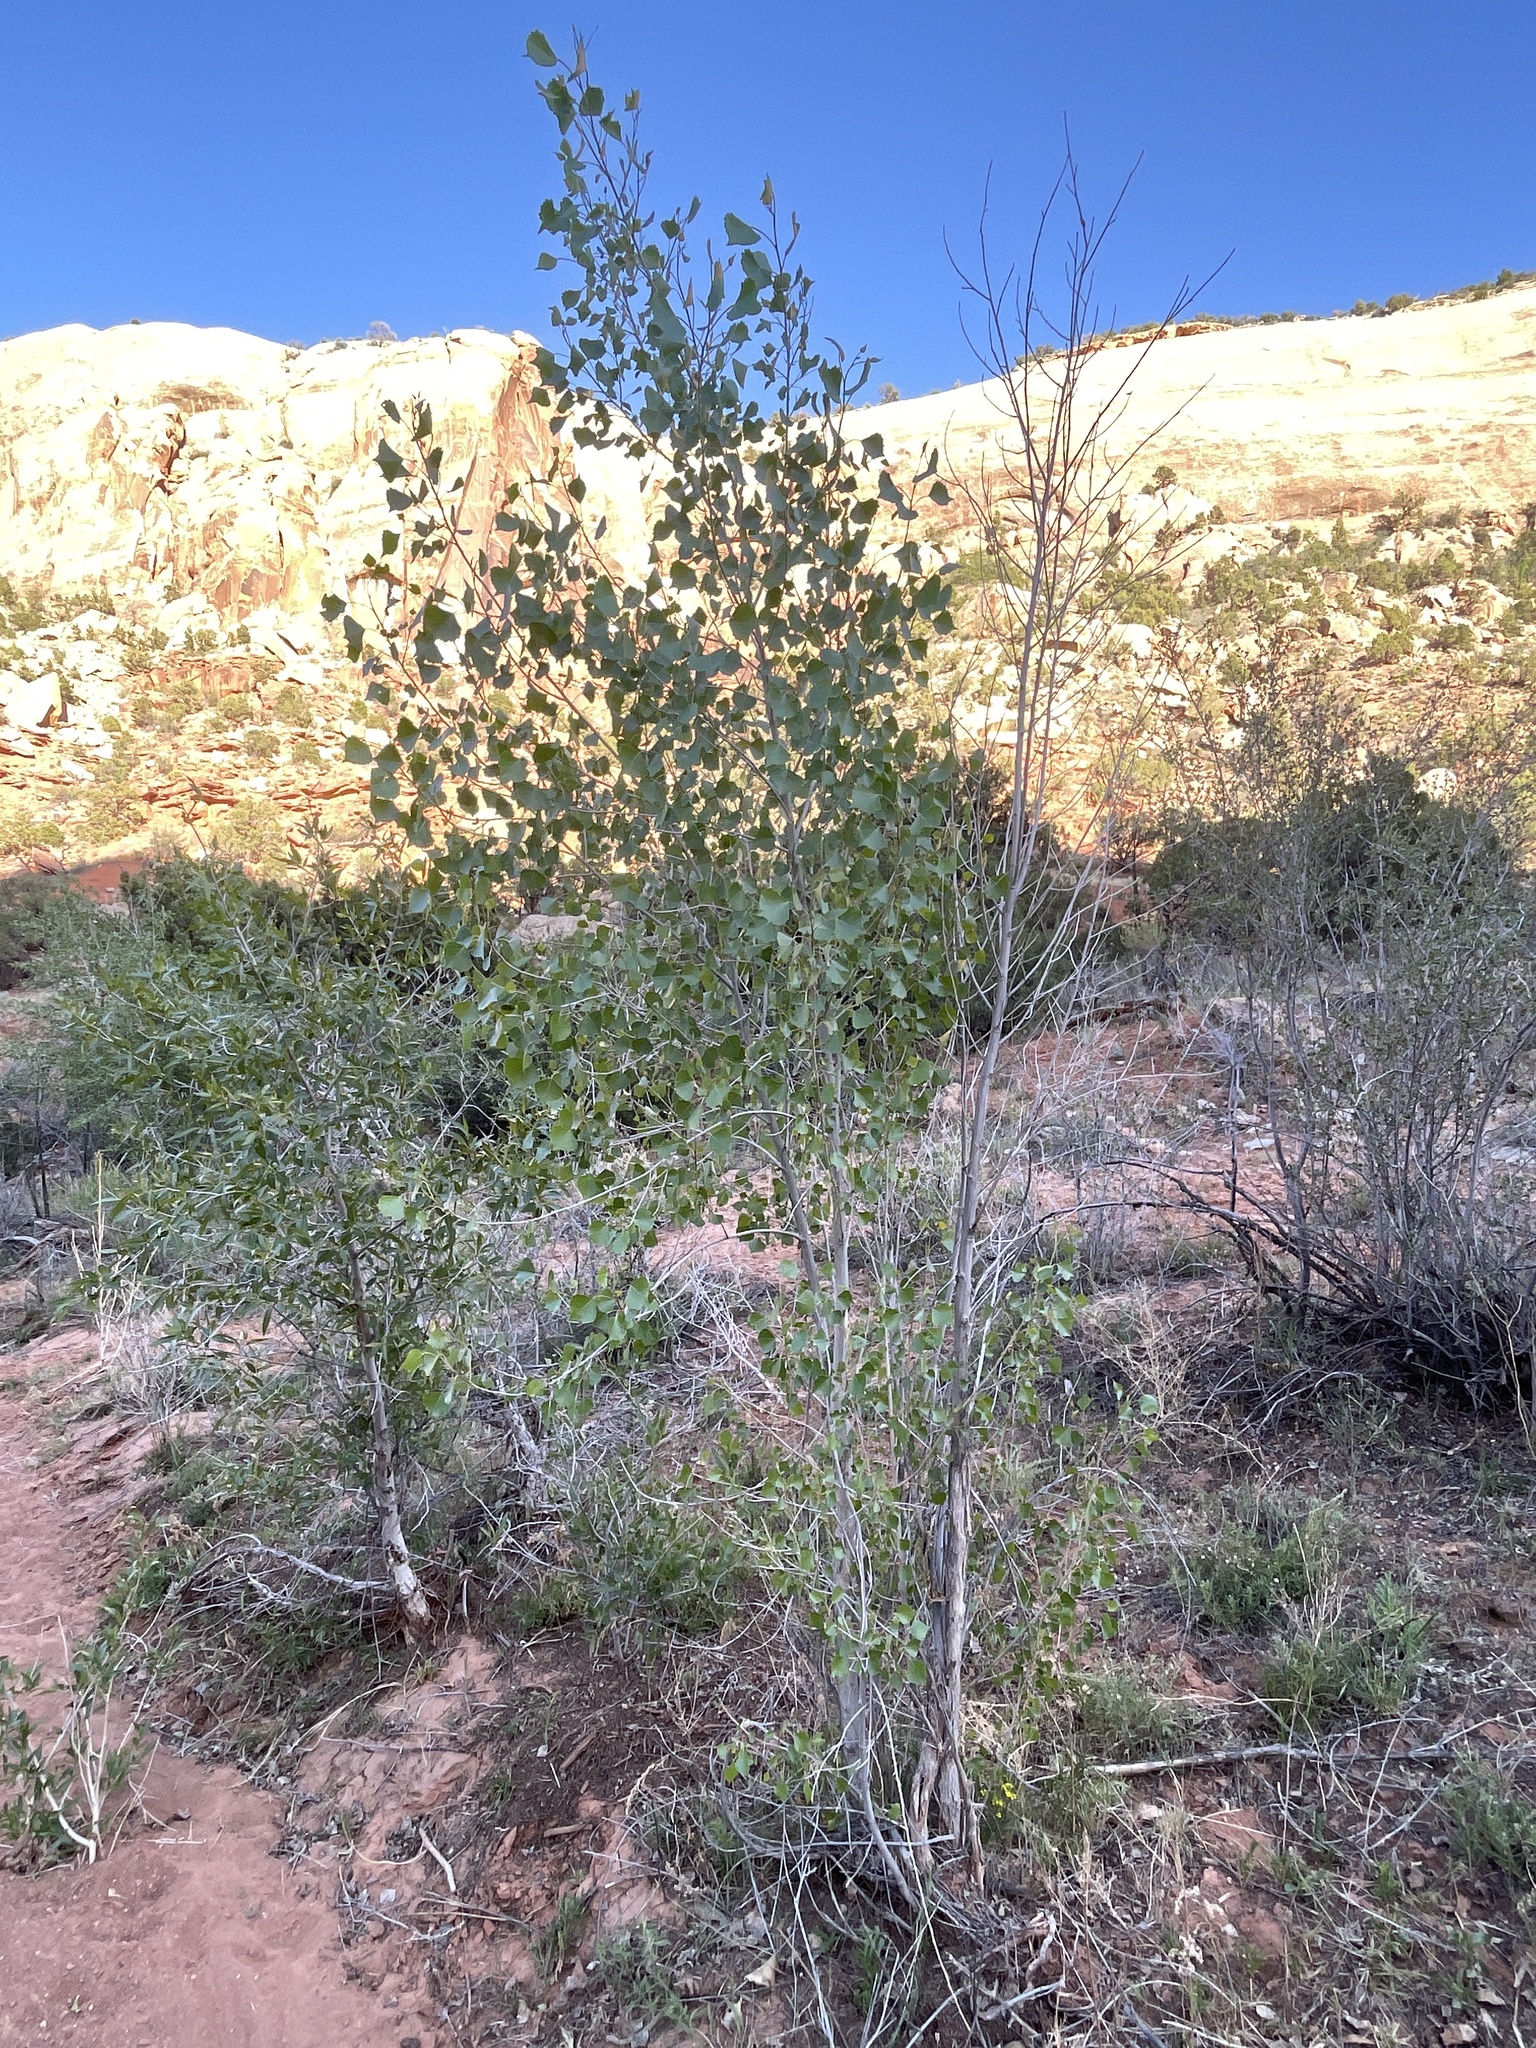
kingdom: Plantae
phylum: Tracheophyta
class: Magnoliopsida
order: Malpighiales
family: Salicaceae
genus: Populus
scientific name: Populus fremontii
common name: Fremont's cottonwood
